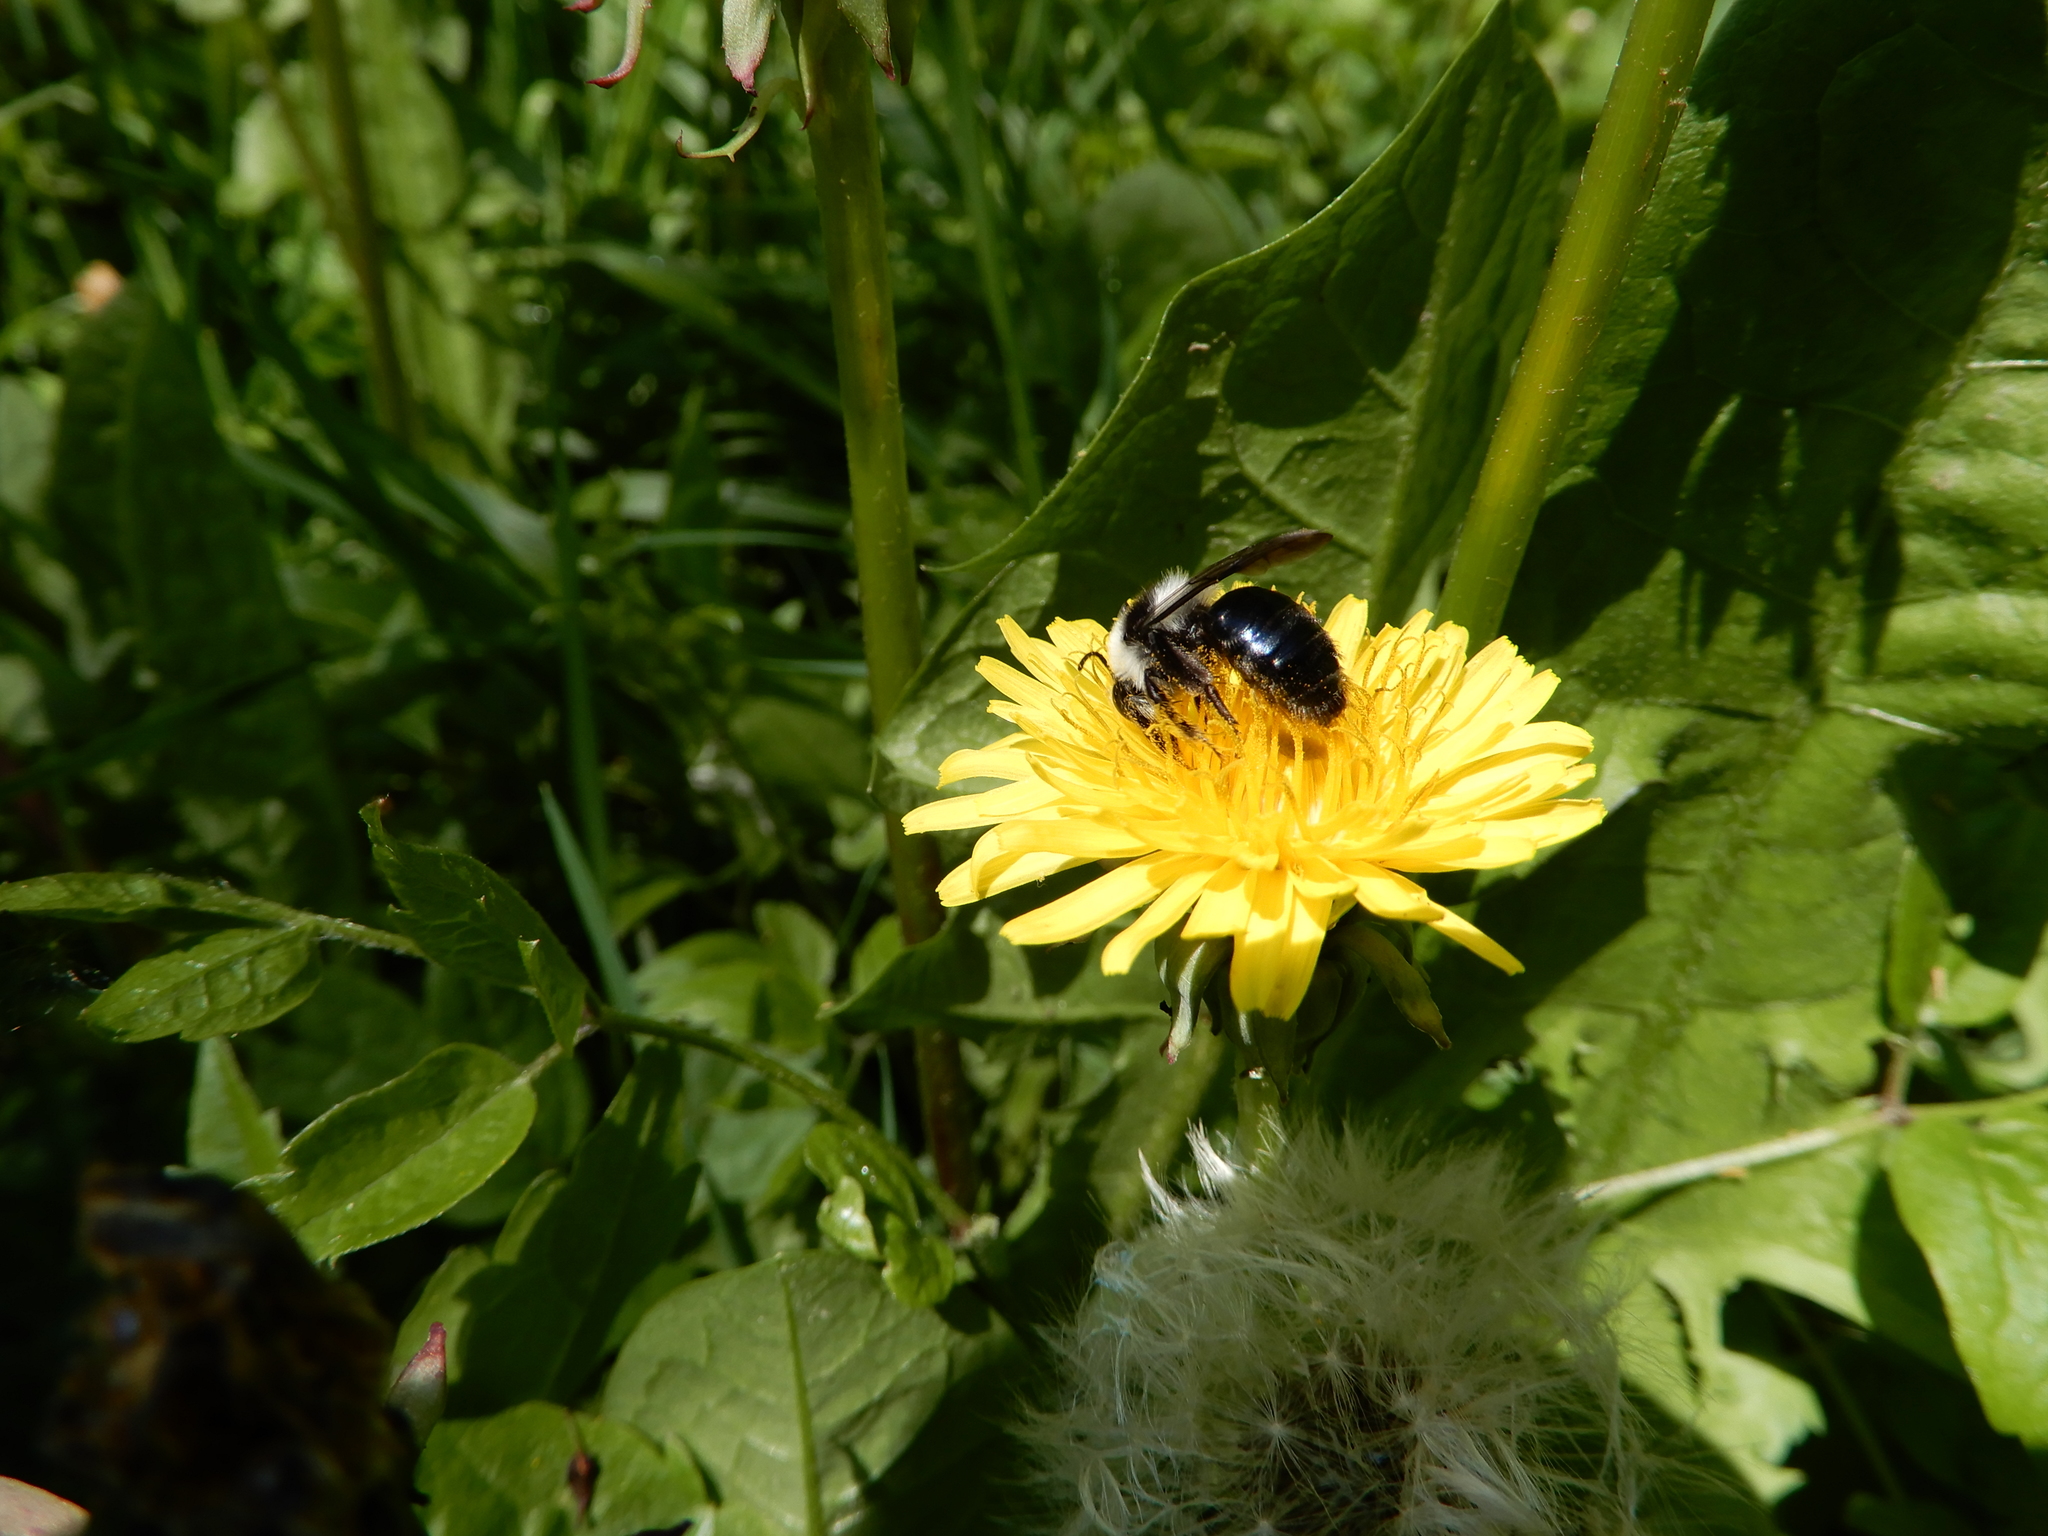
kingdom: Animalia
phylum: Arthropoda
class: Insecta
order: Hymenoptera
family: Andrenidae
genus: Andrena
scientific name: Andrena cineraria
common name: Ashy mining bee
